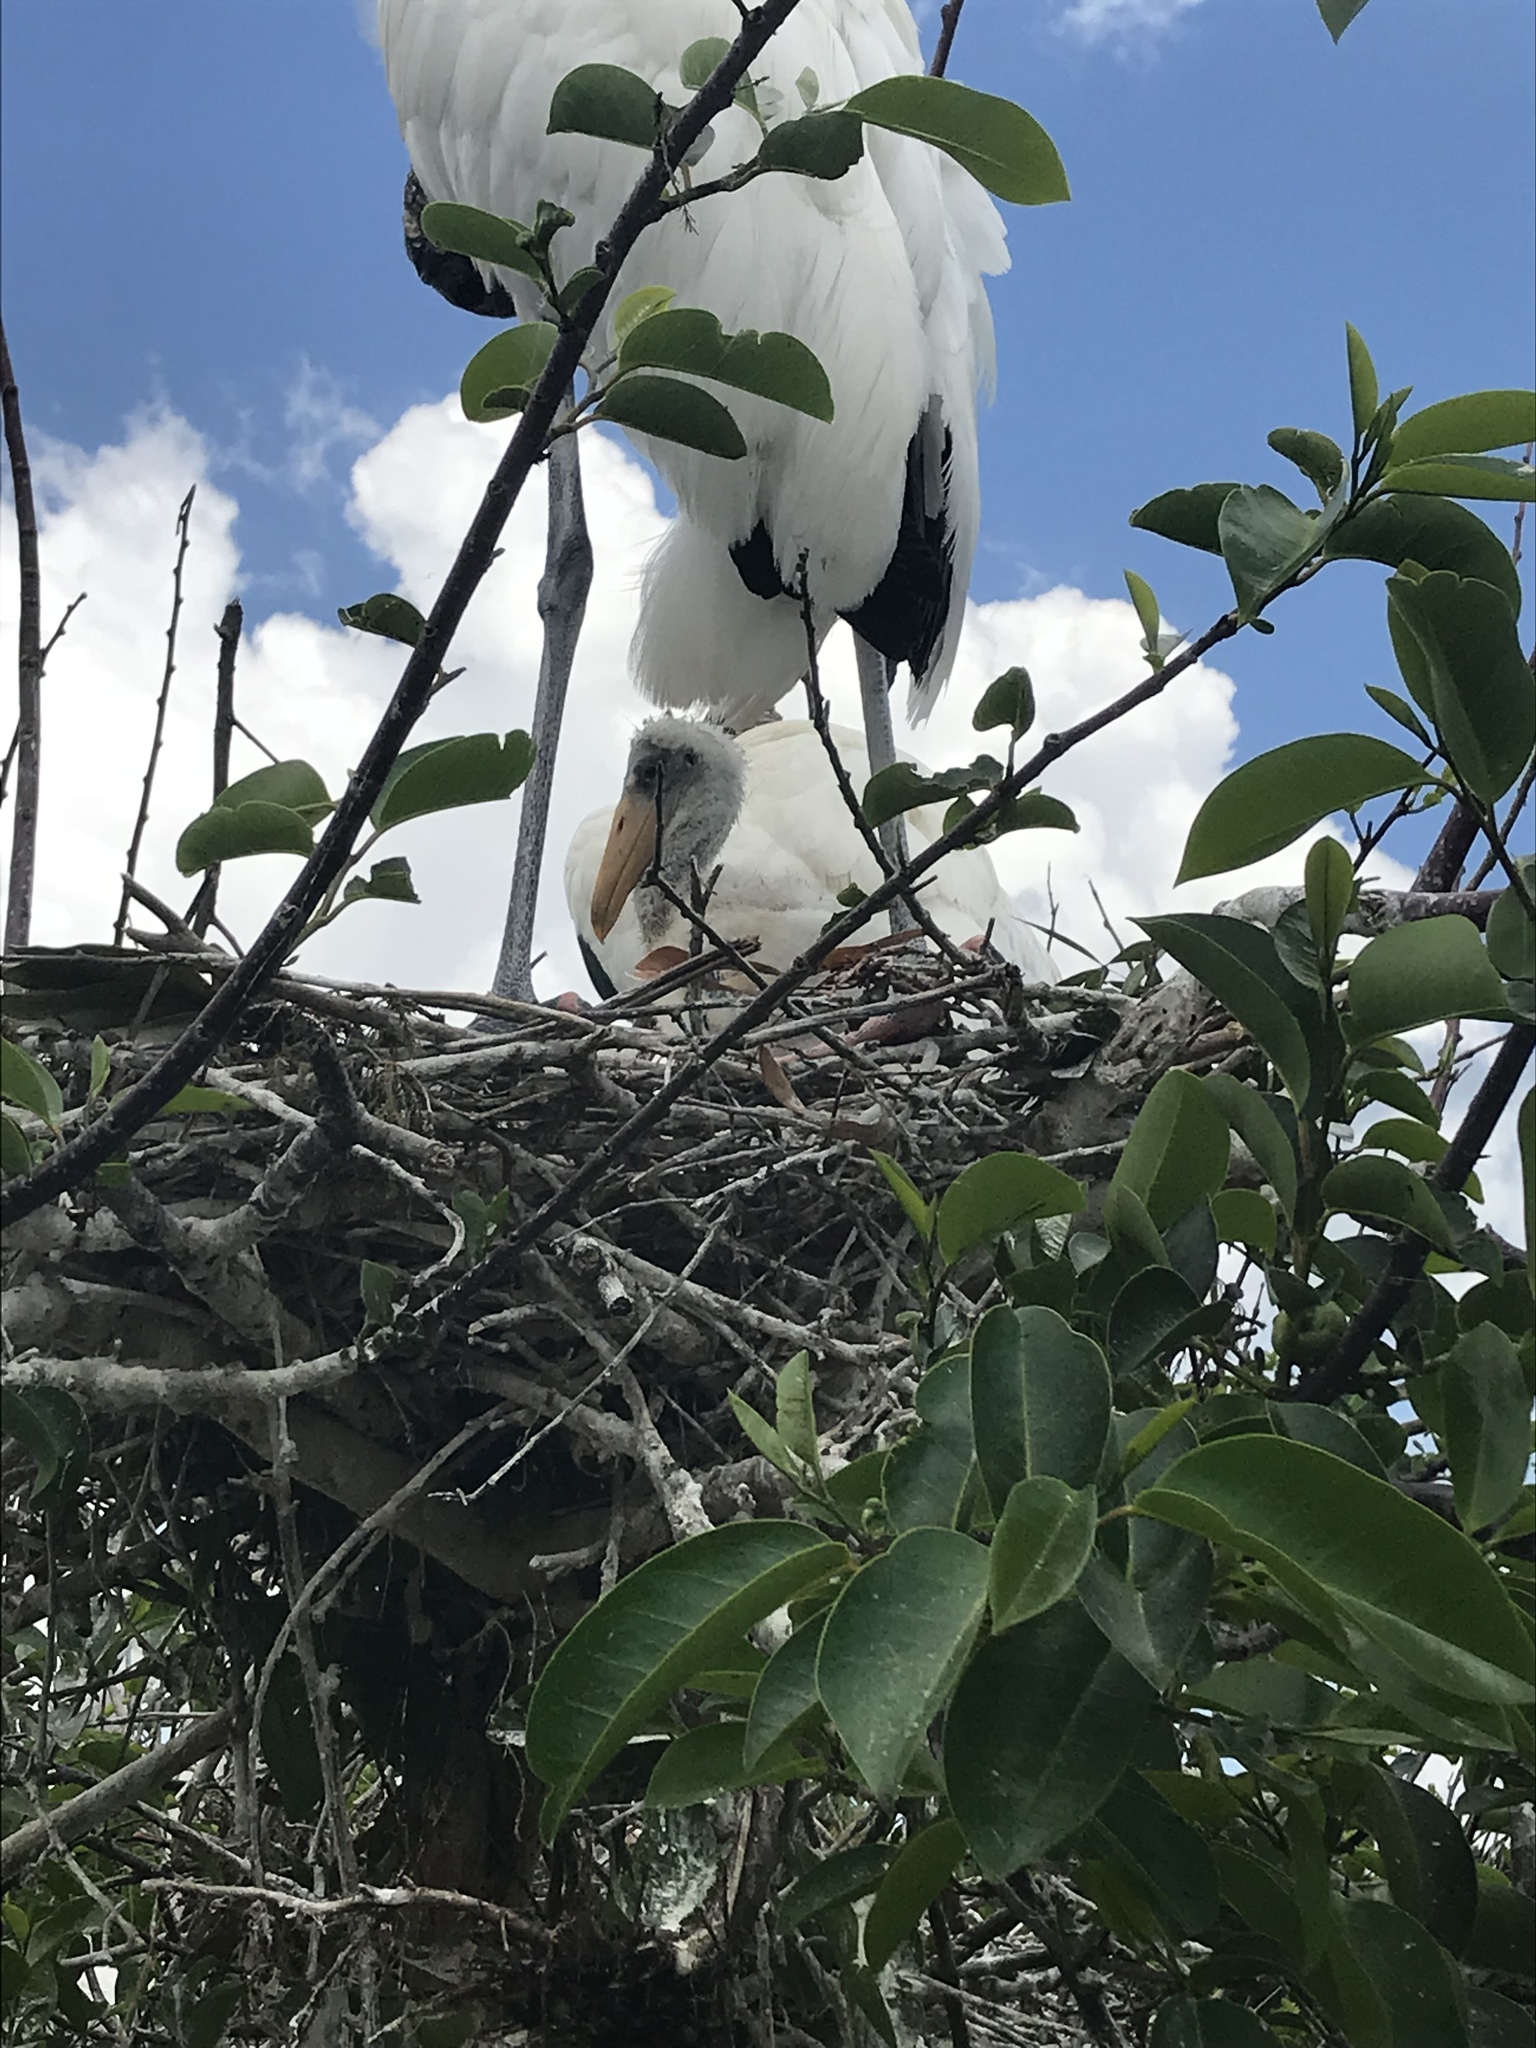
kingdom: Animalia
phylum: Chordata
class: Aves
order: Ciconiiformes
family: Ciconiidae
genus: Mycteria
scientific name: Mycteria americana
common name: Wood stork
